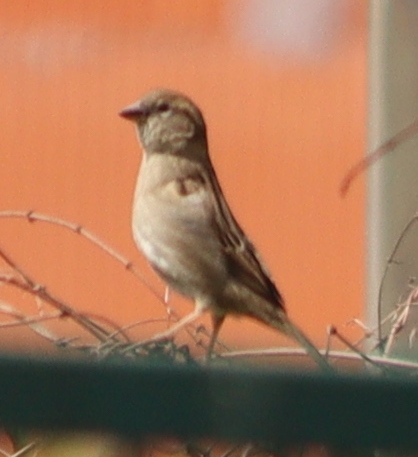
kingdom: Animalia
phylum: Chordata
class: Aves
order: Passeriformes
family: Passeridae
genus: Passer
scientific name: Passer domesticus
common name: House sparrow
